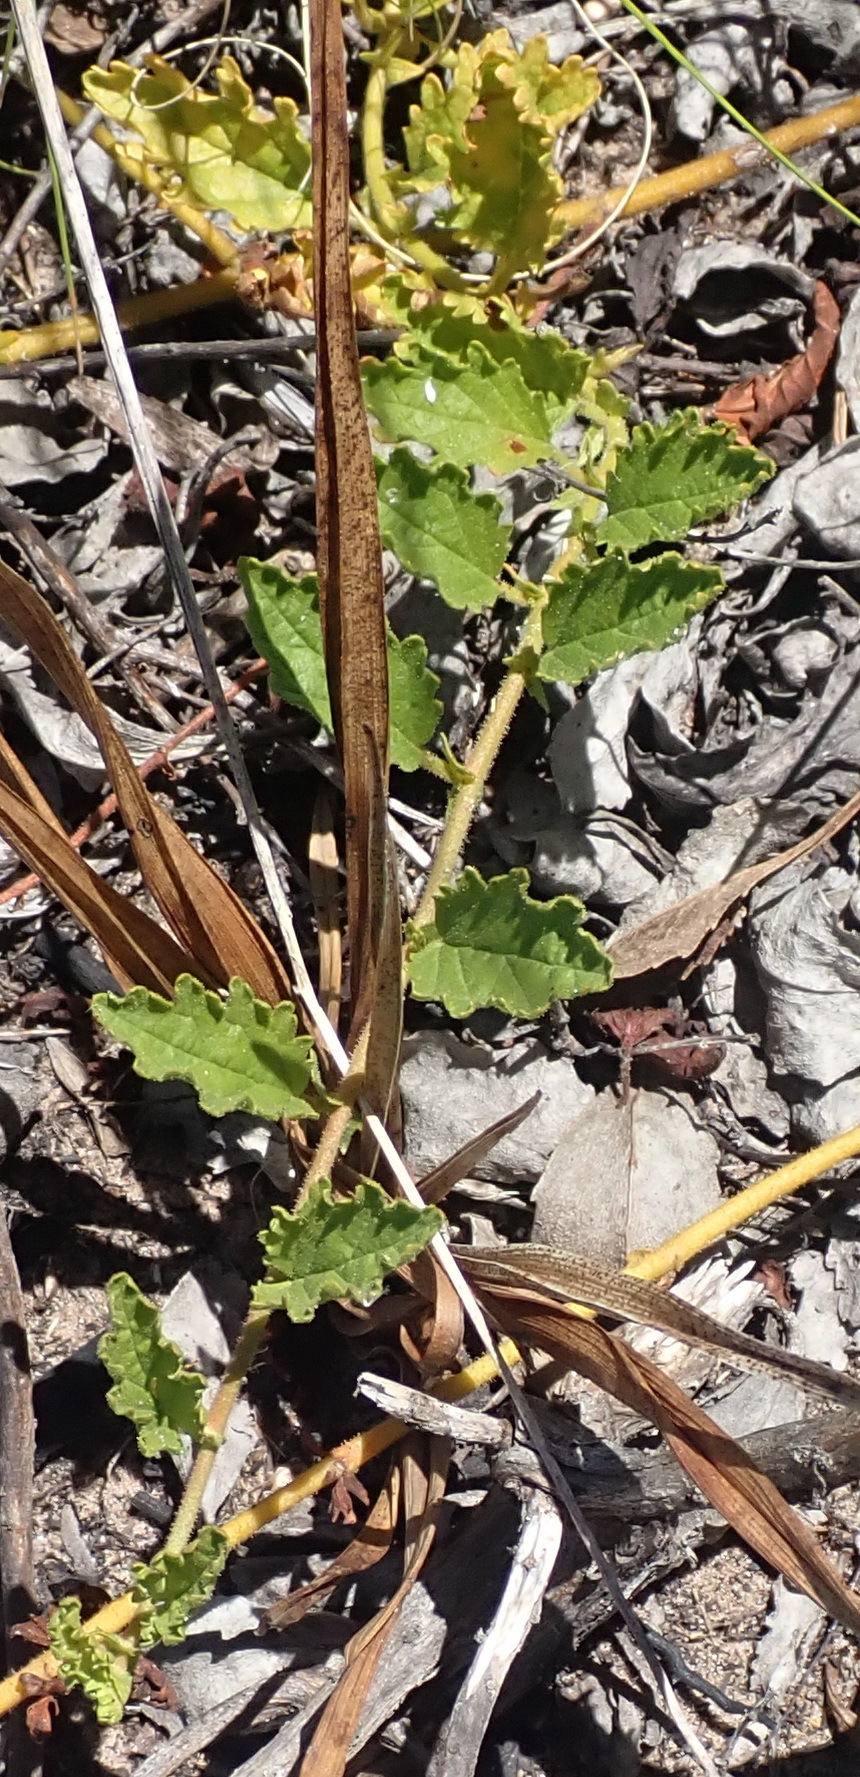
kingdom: Plantae
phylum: Tracheophyta
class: Magnoliopsida
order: Malvales
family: Malvaceae
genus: Hermannia
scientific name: Hermannia diffusa
